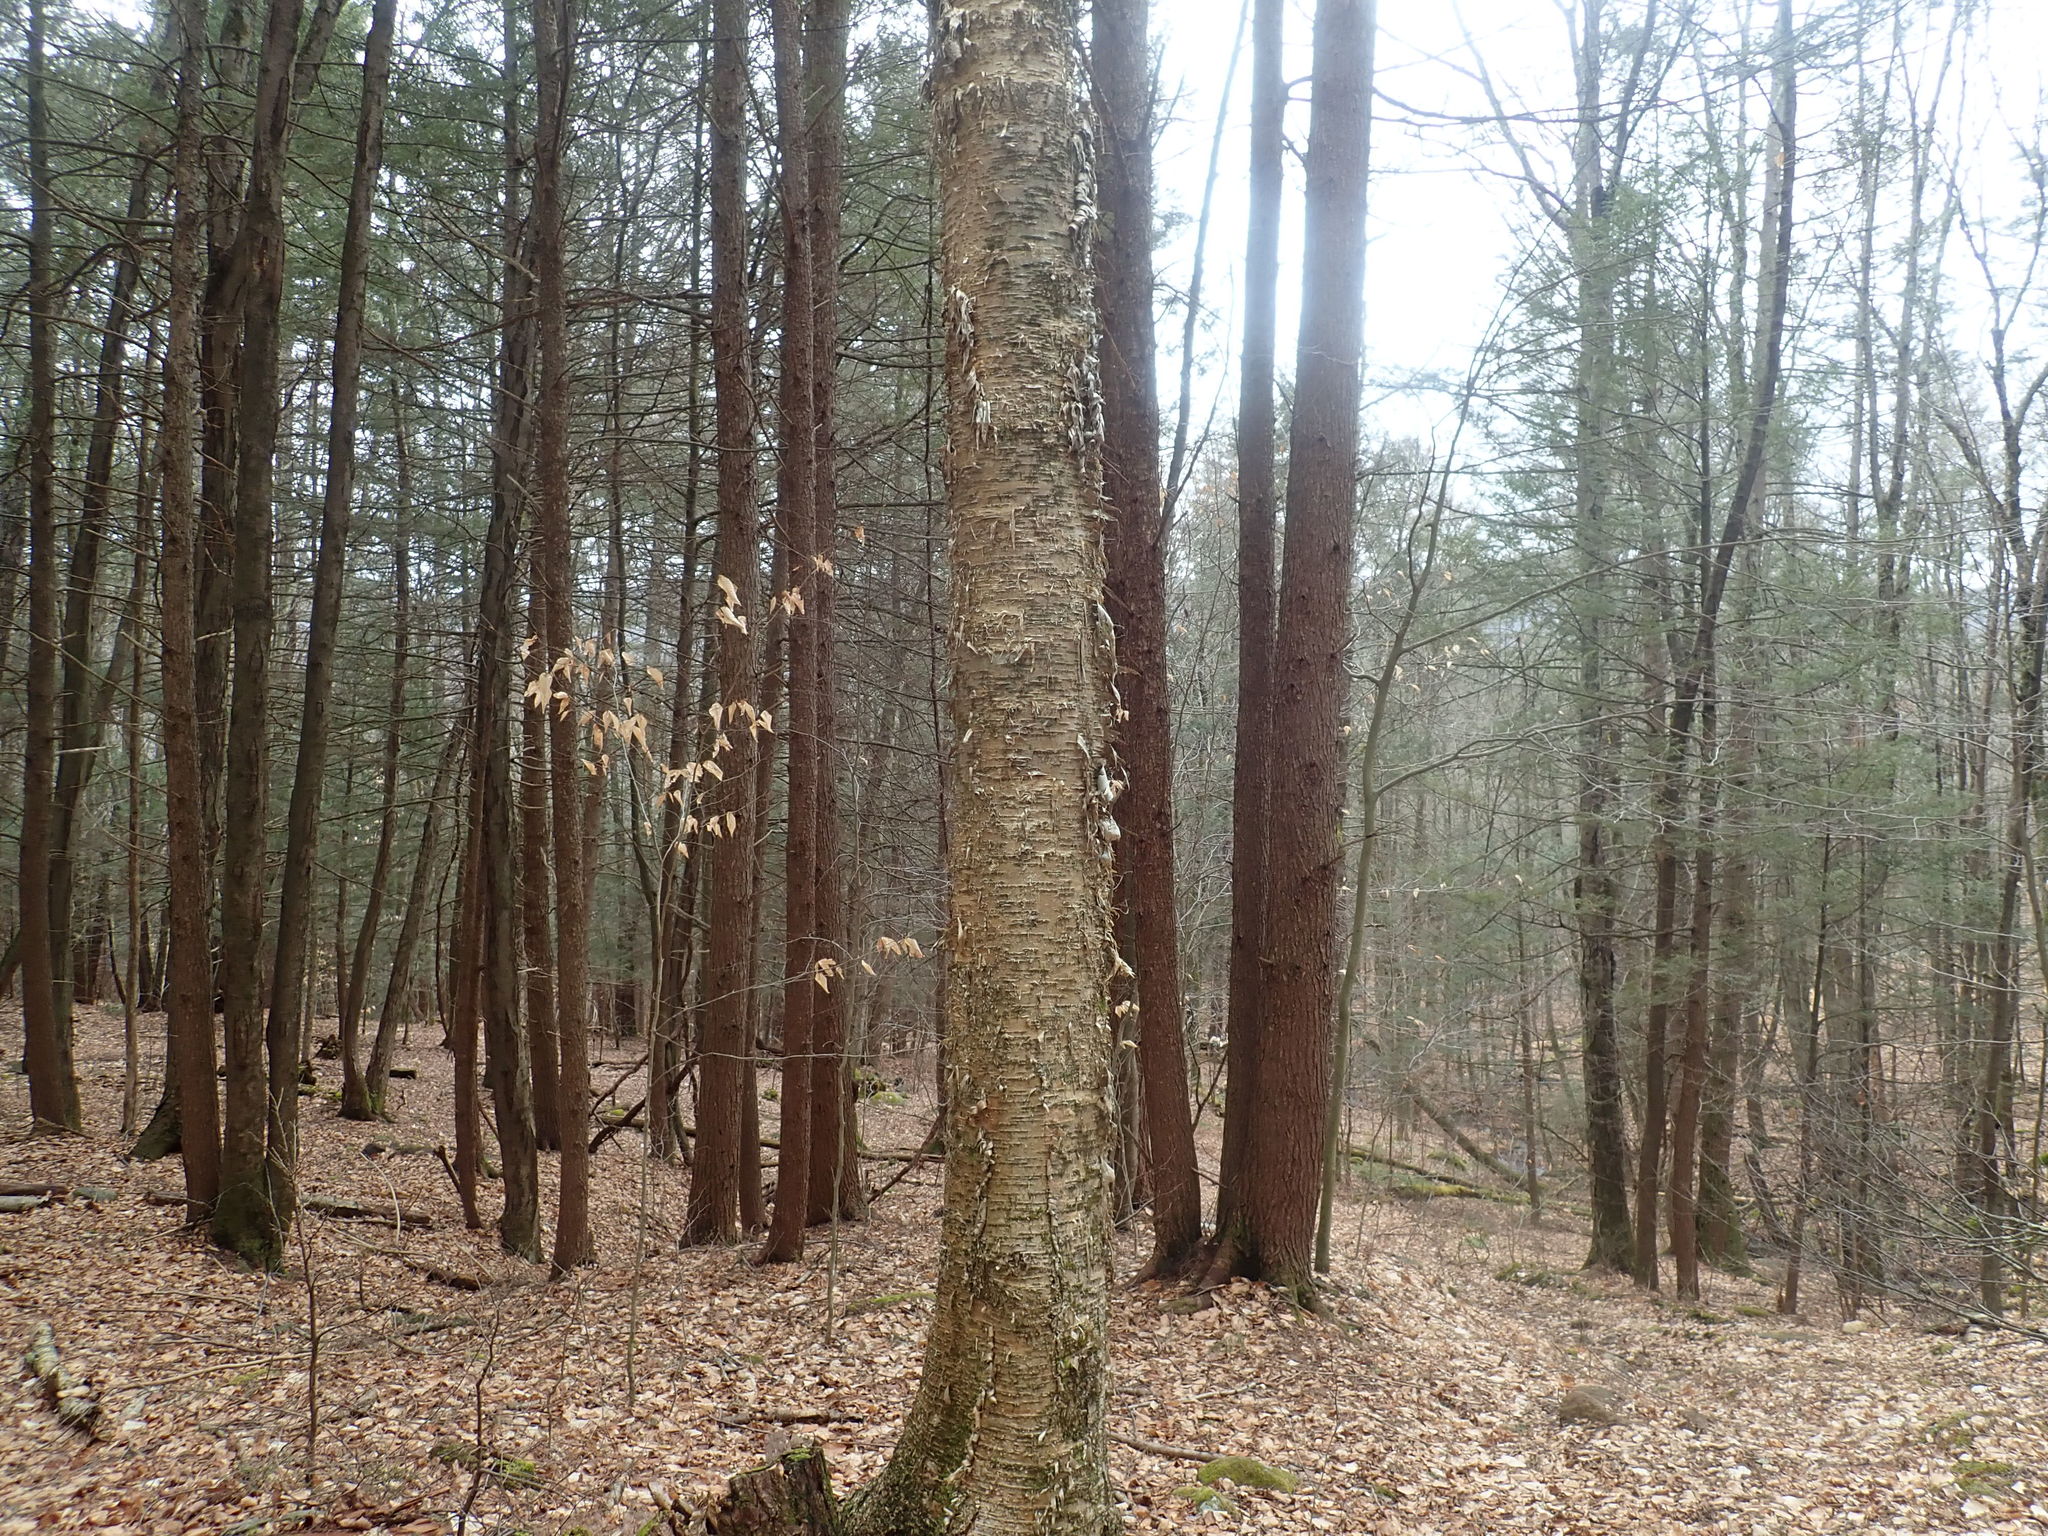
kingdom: Plantae
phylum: Tracheophyta
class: Magnoliopsida
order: Fagales
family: Betulaceae
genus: Betula
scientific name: Betula alleghaniensis
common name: Yellow birch
